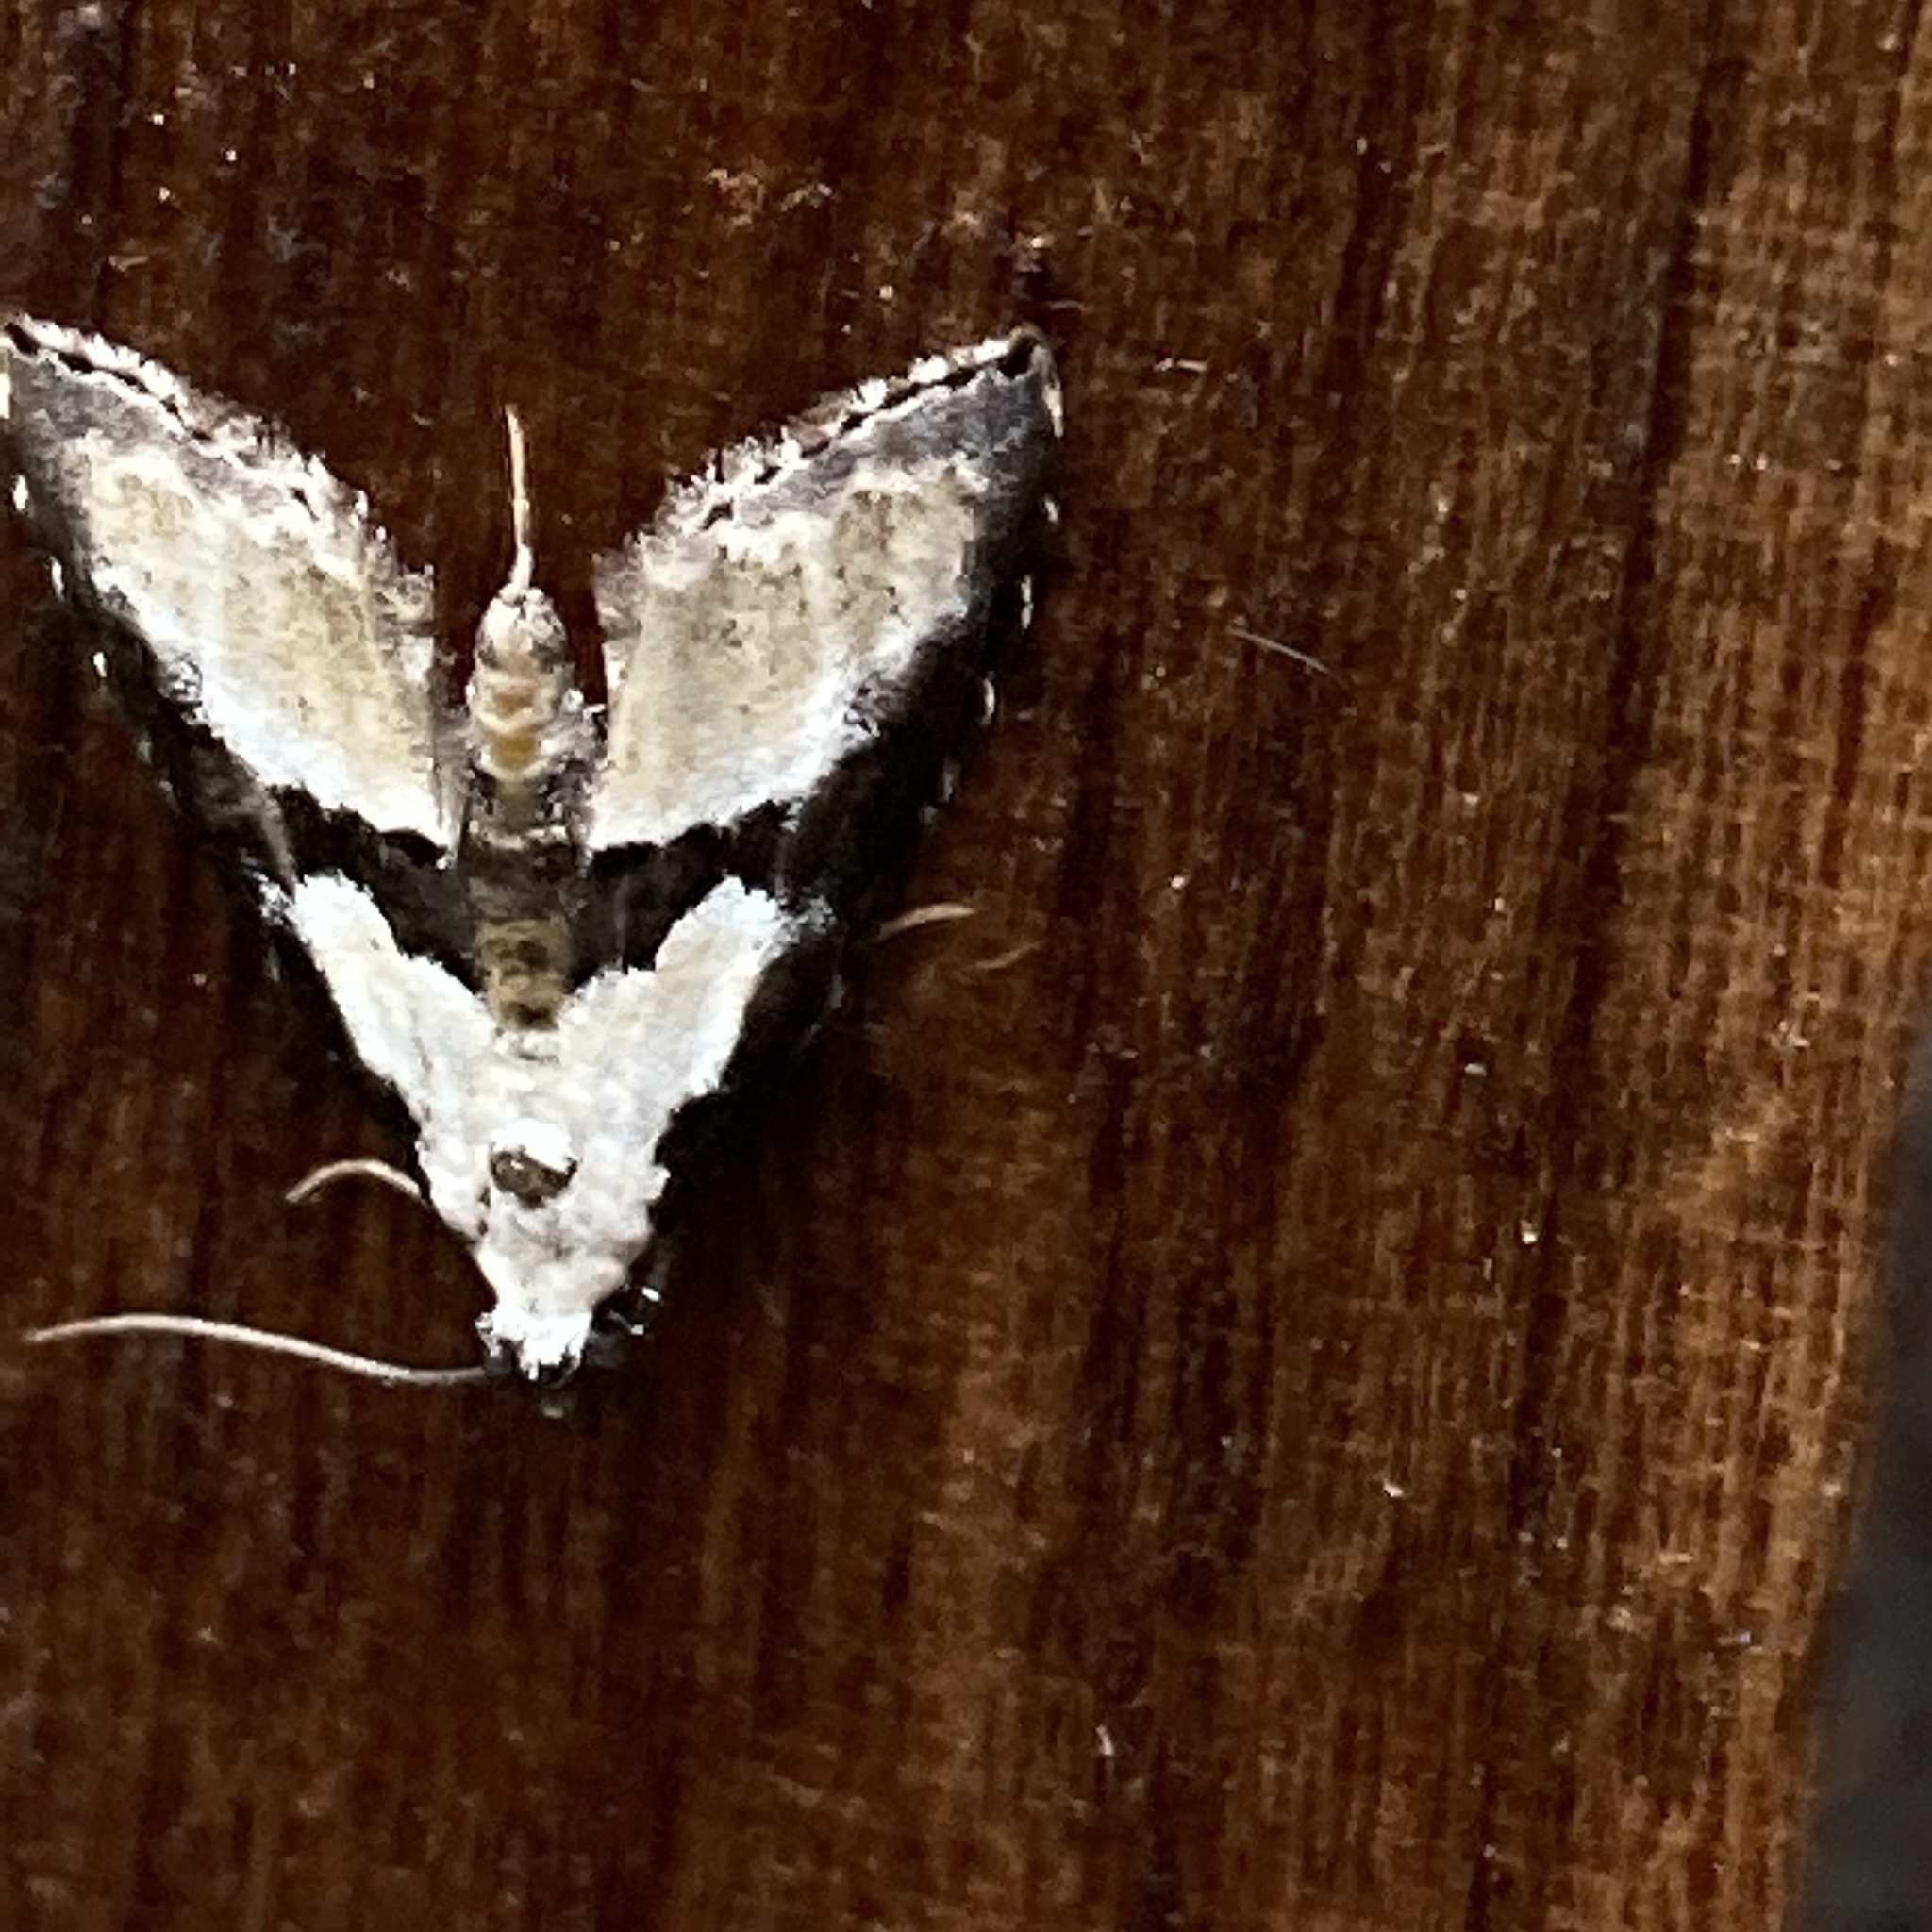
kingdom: Animalia
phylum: Arthropoda
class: Insecta
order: Lepidoptera
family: Noctuidae
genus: Nigetia
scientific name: Nigetia formosalis
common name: Thin-winged owlet
